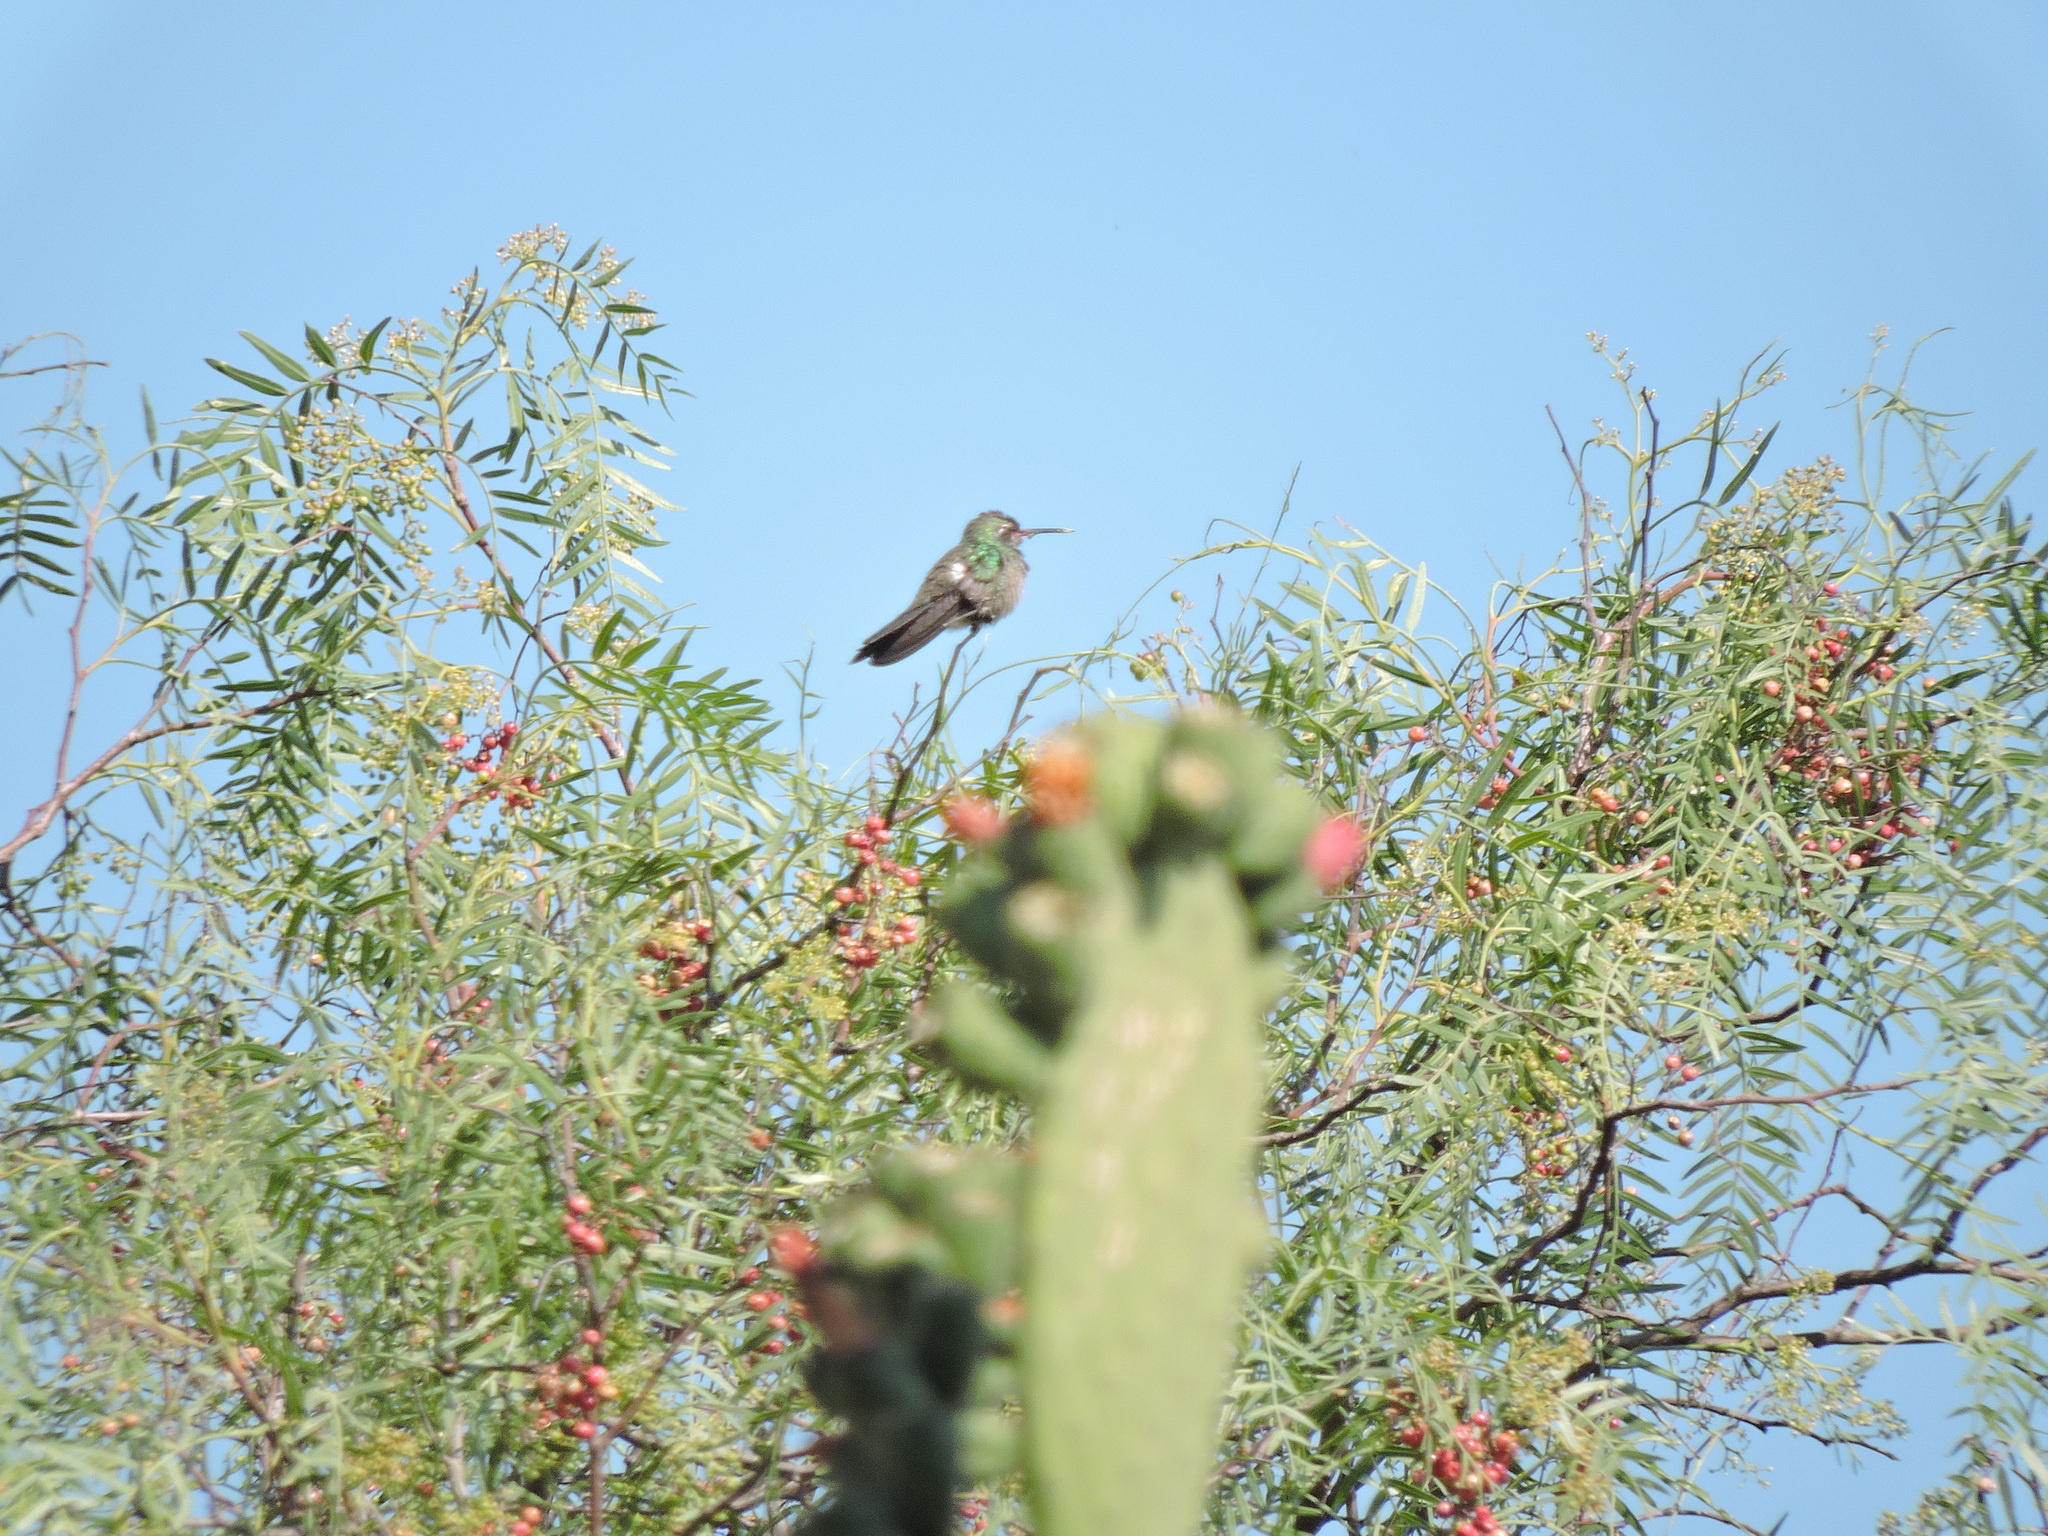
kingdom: Animalia
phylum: Chordata
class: Aves
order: Apodiformes
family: Trochilidae
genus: Cynanthus
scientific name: Cynanthus latirostris
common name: Broad-billed hummingbird
